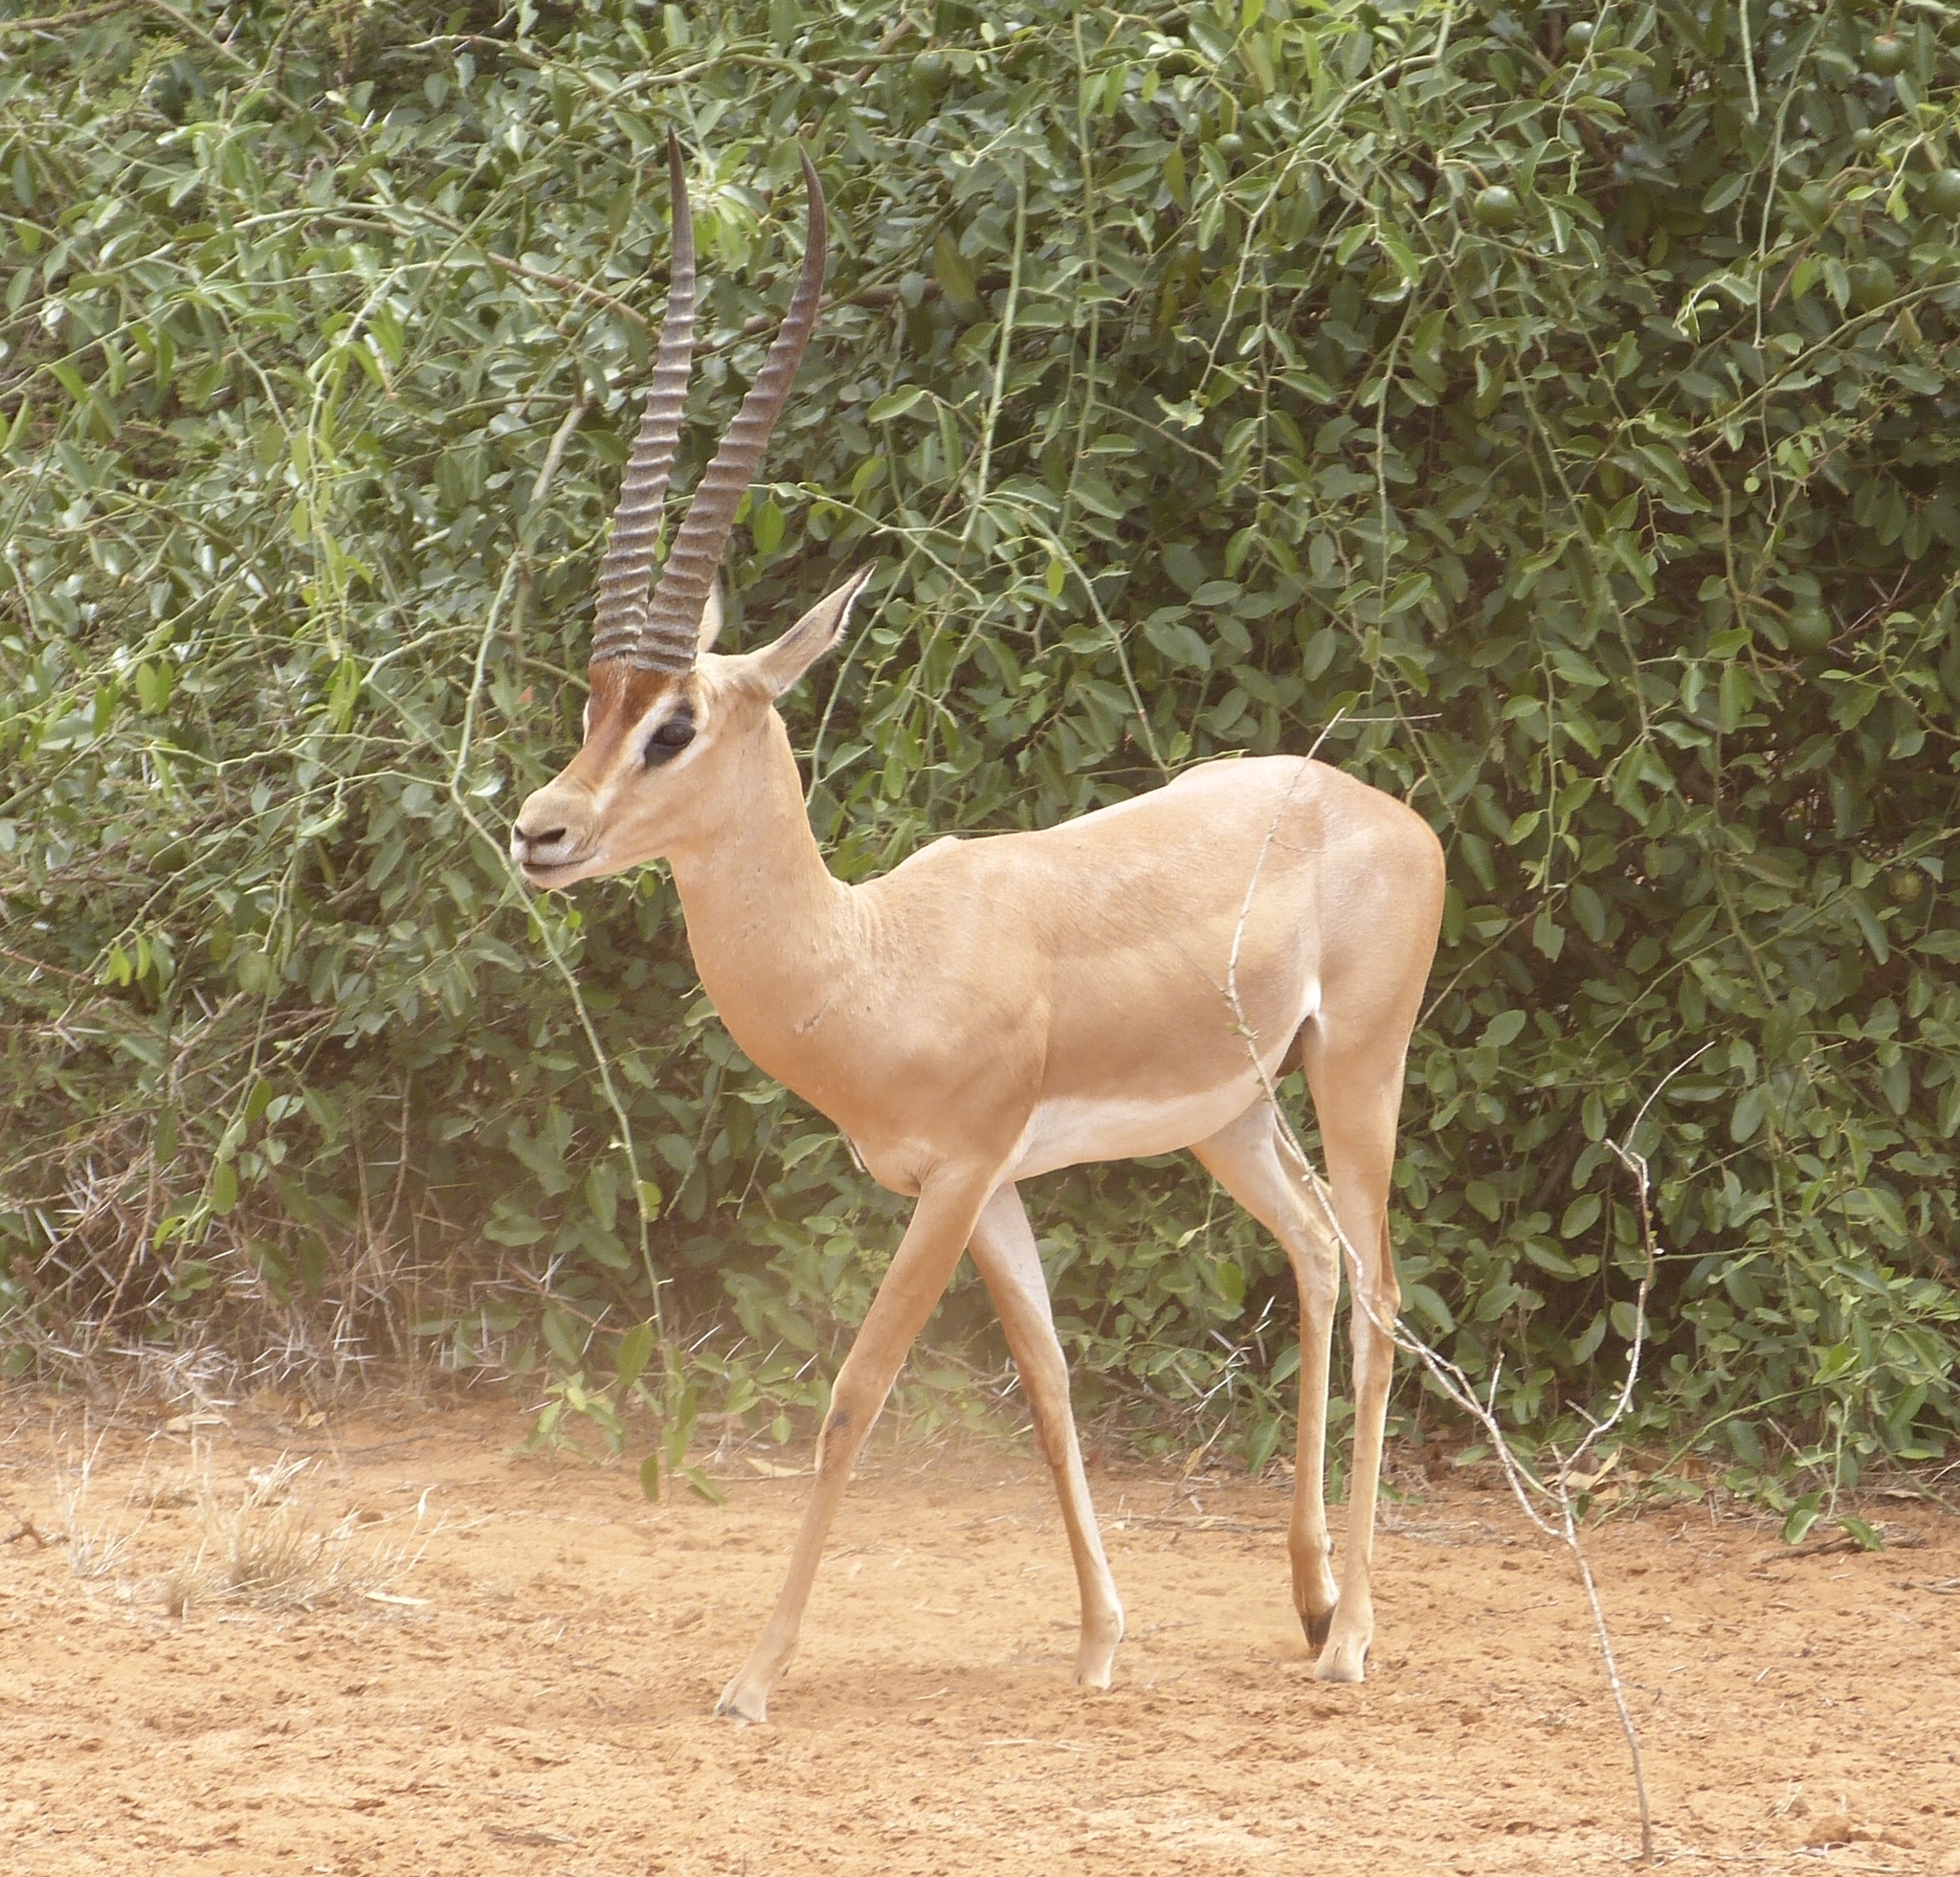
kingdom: Animalia
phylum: Chordata
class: Mammalia
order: Artiodactyla
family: Bovidae
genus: Nanger
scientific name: Nanger granti
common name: Grant's gazelle
